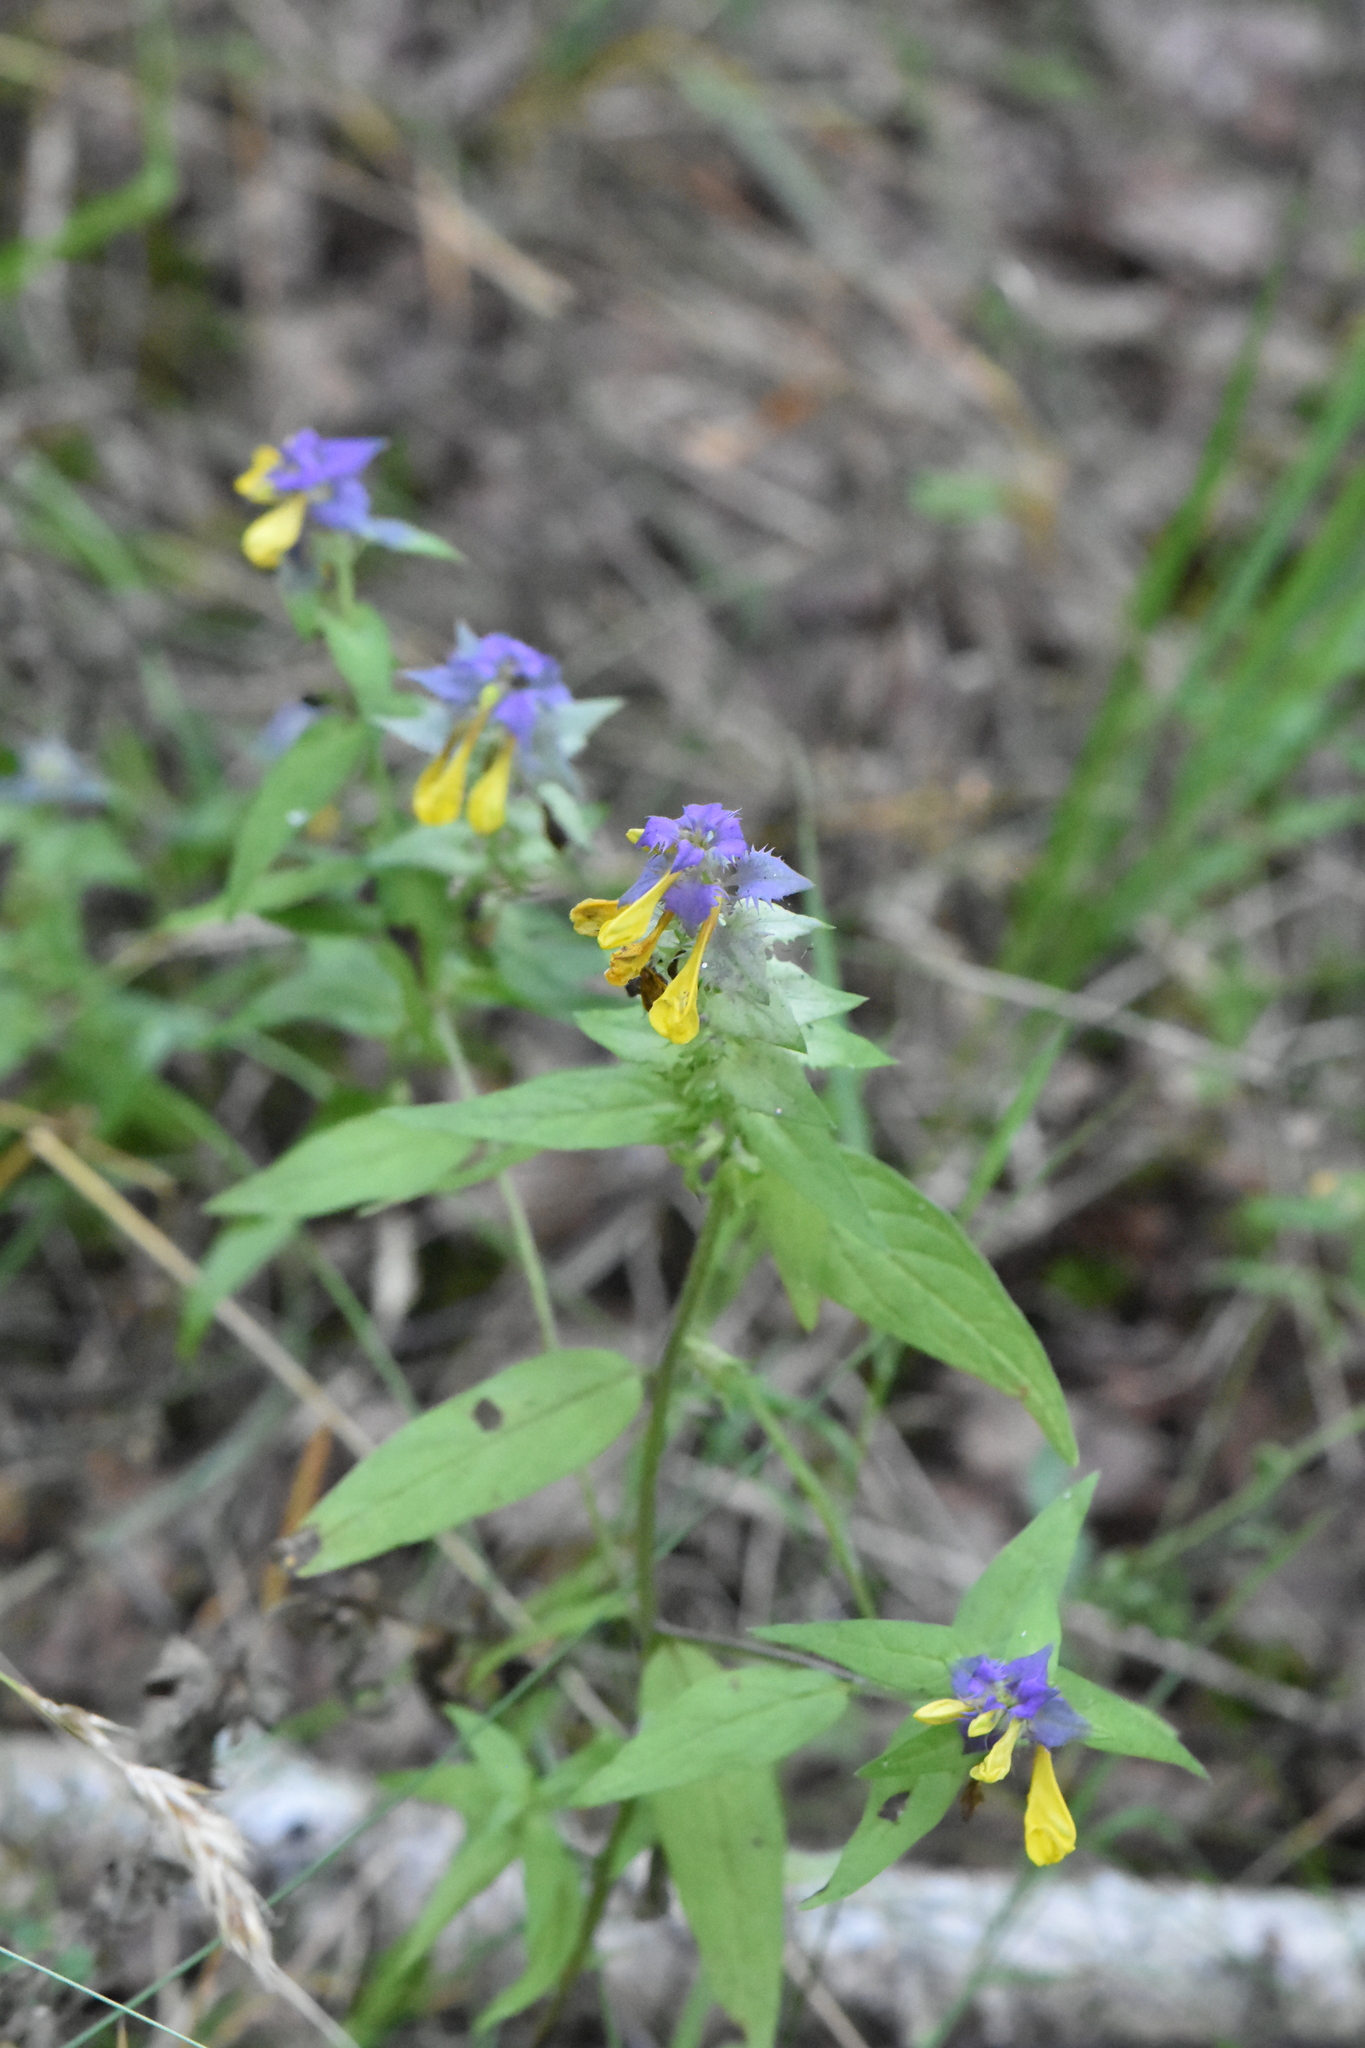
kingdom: Plantae
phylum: Tracheophyta
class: Magnoliopsida
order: Lamiales
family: Orobanchaceae
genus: Melampyrum
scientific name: Melampyrum nemorosum
